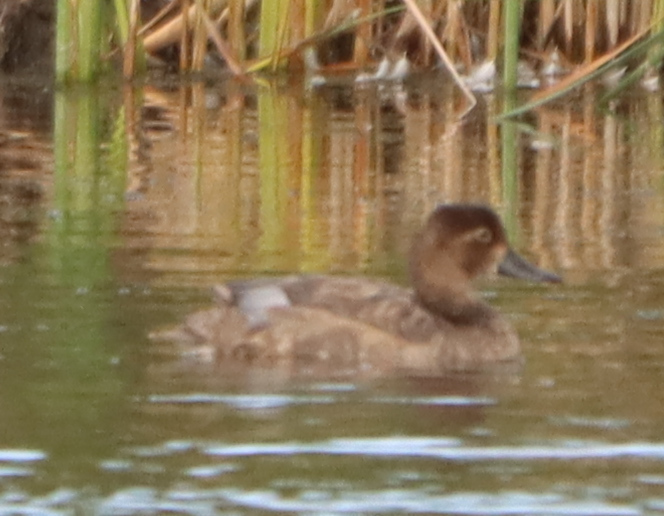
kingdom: Animalia
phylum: Chordata
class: Aves
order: Anseriformes
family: Anatidae
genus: Aythya
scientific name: Aythya americana
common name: Redhead
